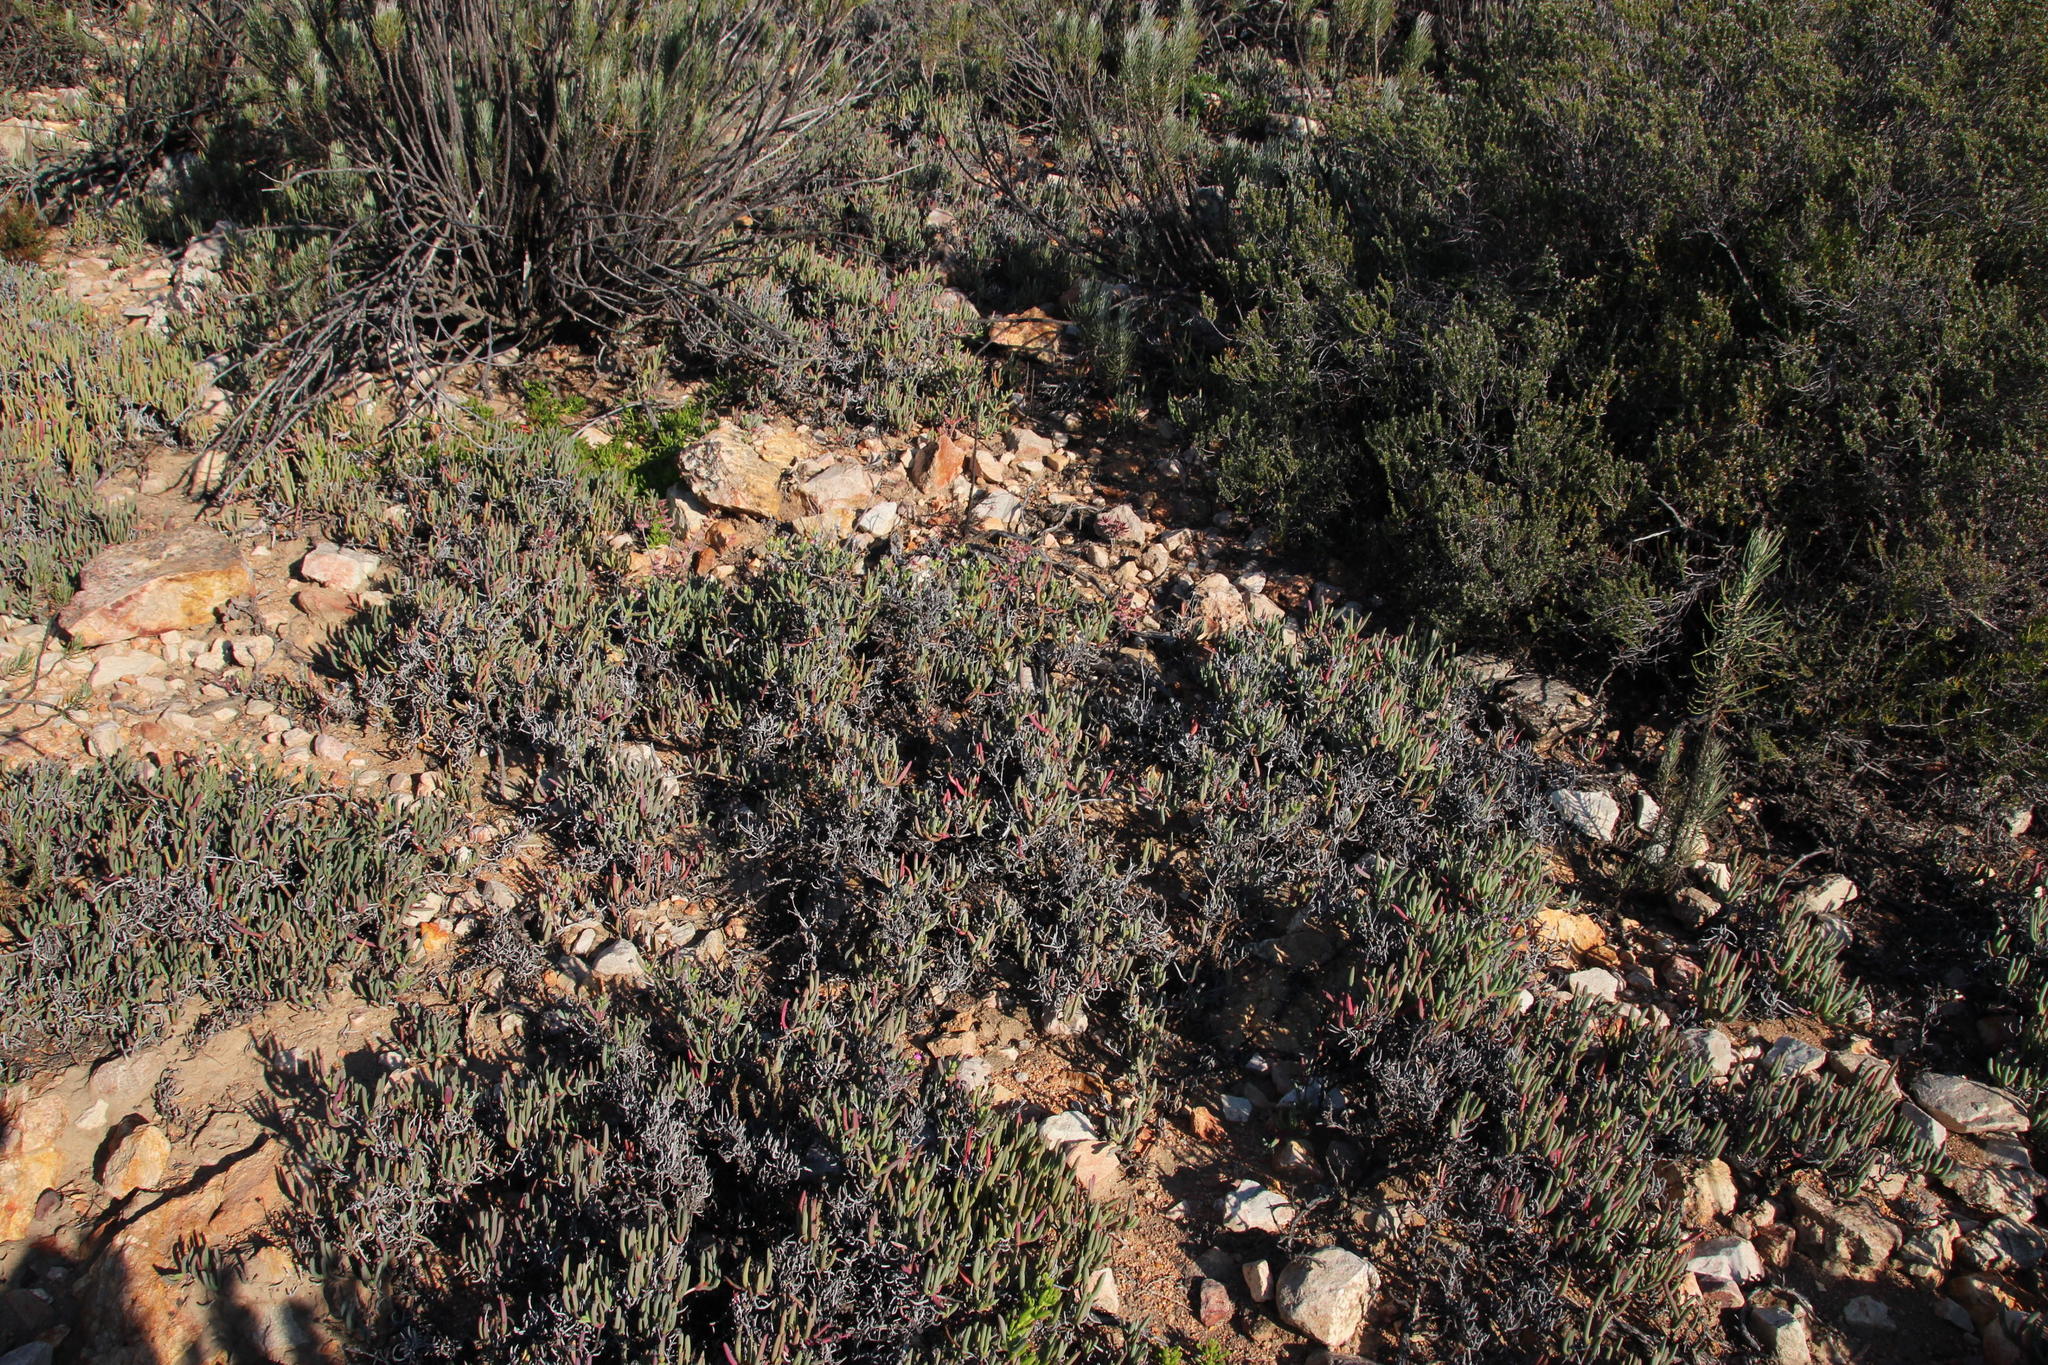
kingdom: Plantae
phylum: Tracheophyta
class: Magnoliopsida
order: Caryophyllales
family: Aizoaceae
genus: Ruschia
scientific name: Ruschia caroli
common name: Shrubby dewplant
